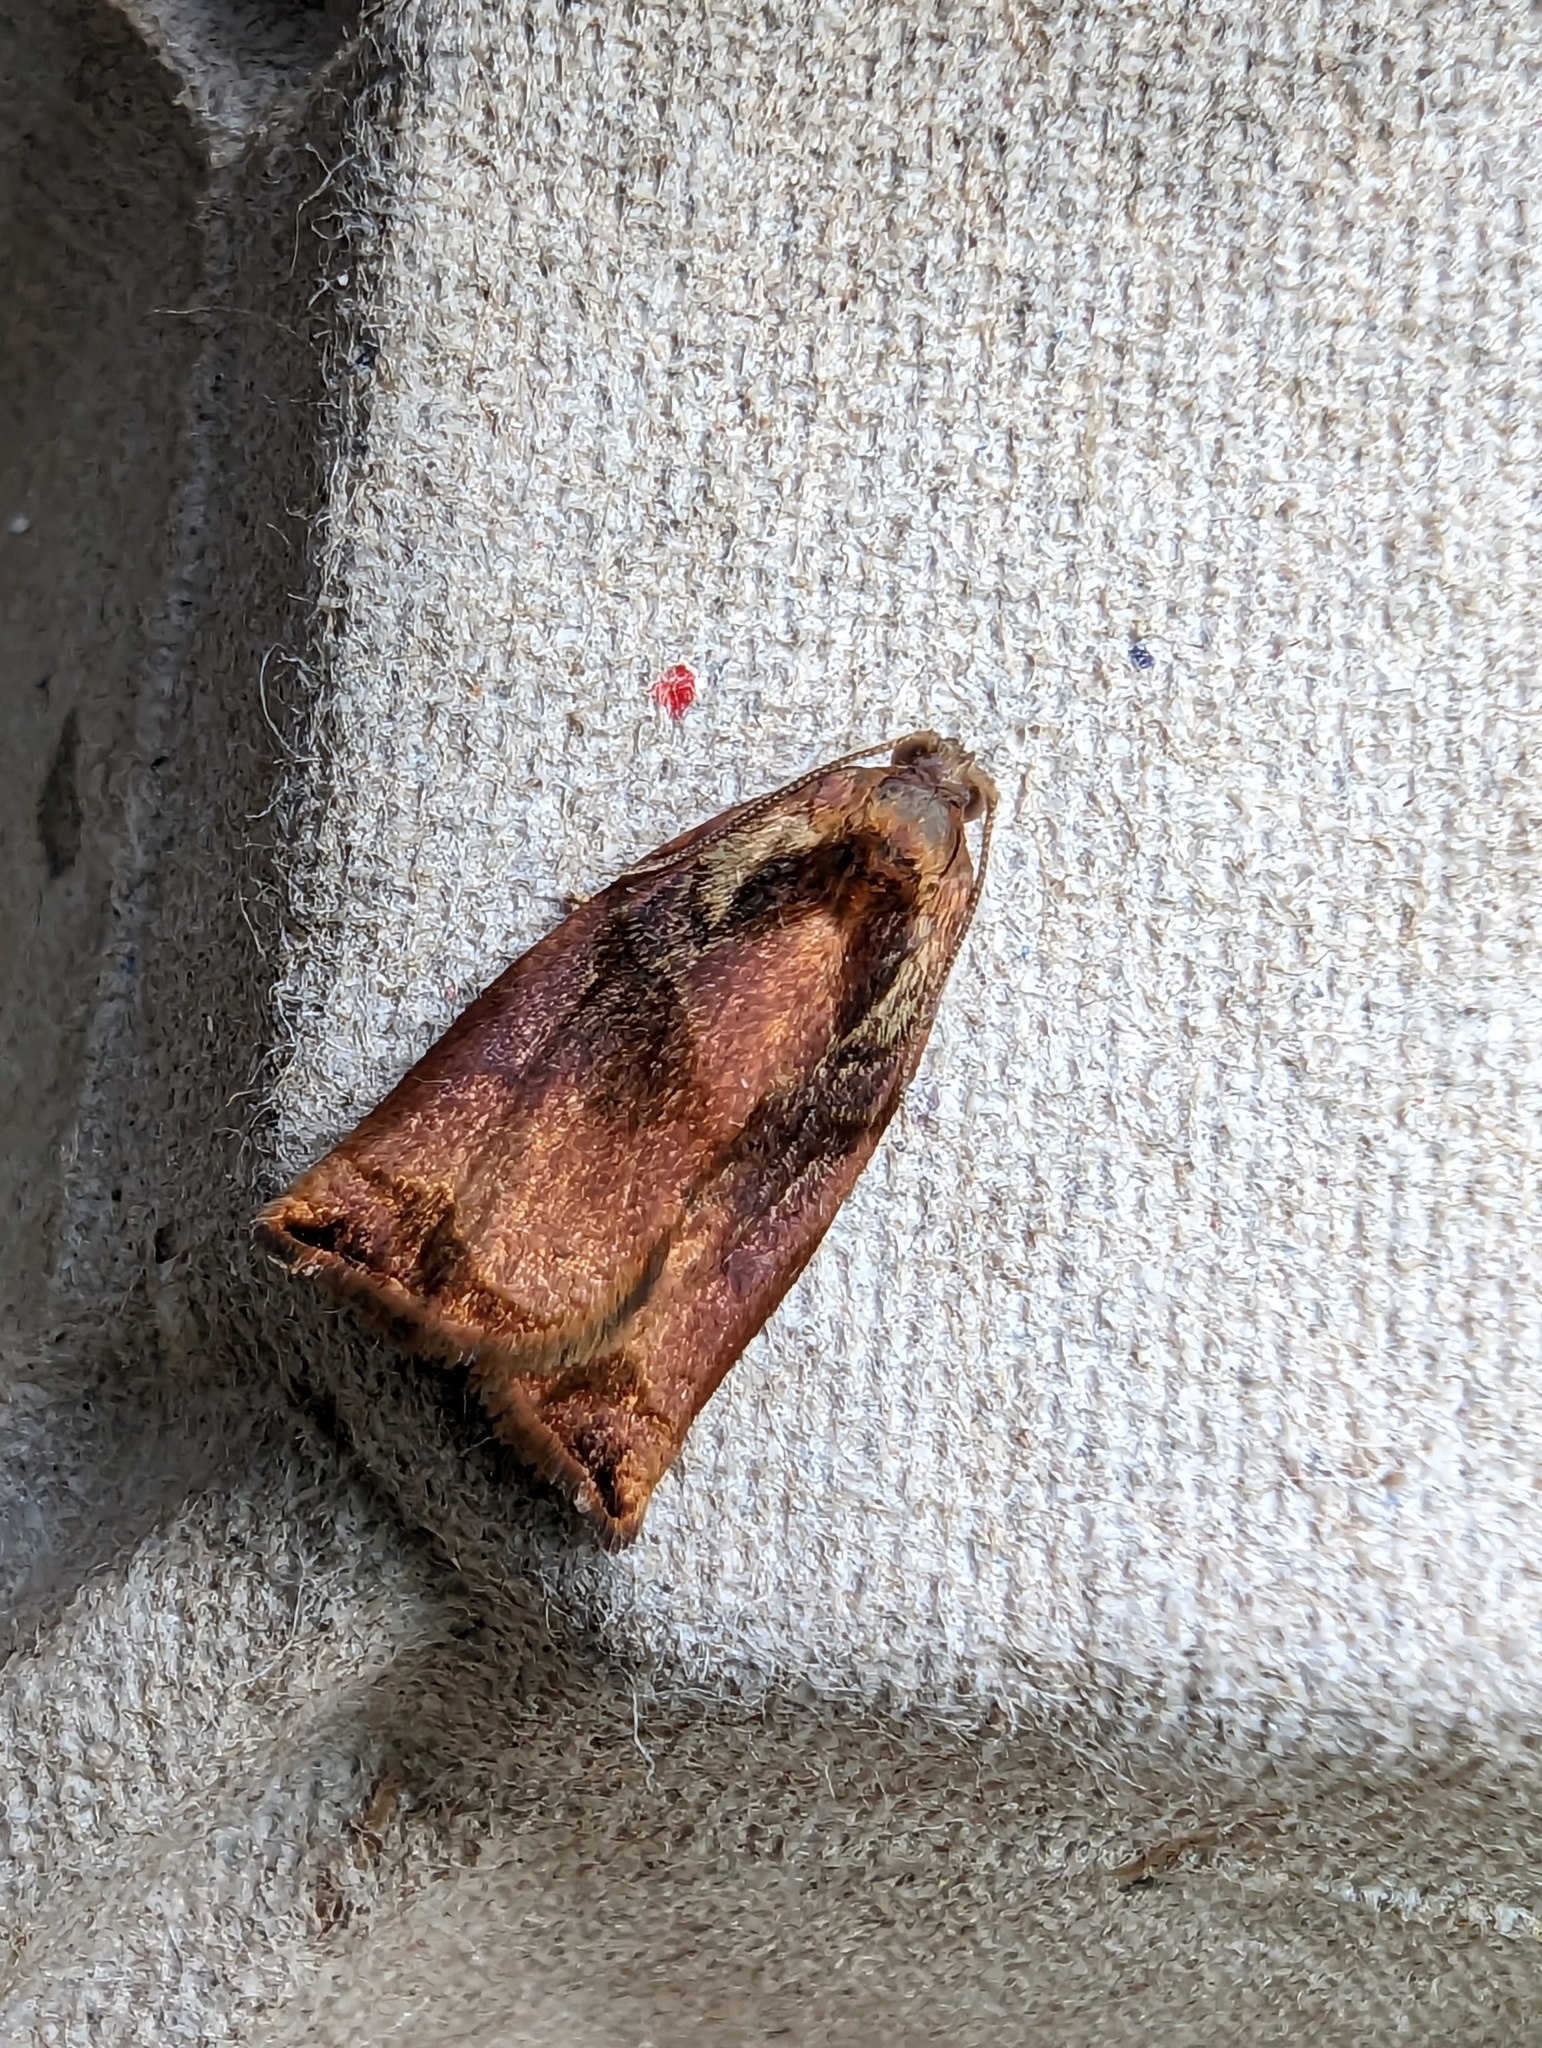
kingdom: Animalia
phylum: Arthropoda
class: Insecta
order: Lepidoptera
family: Tortricidae
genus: Archips
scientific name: Archips podana
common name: Large fruit-tree tortrix
